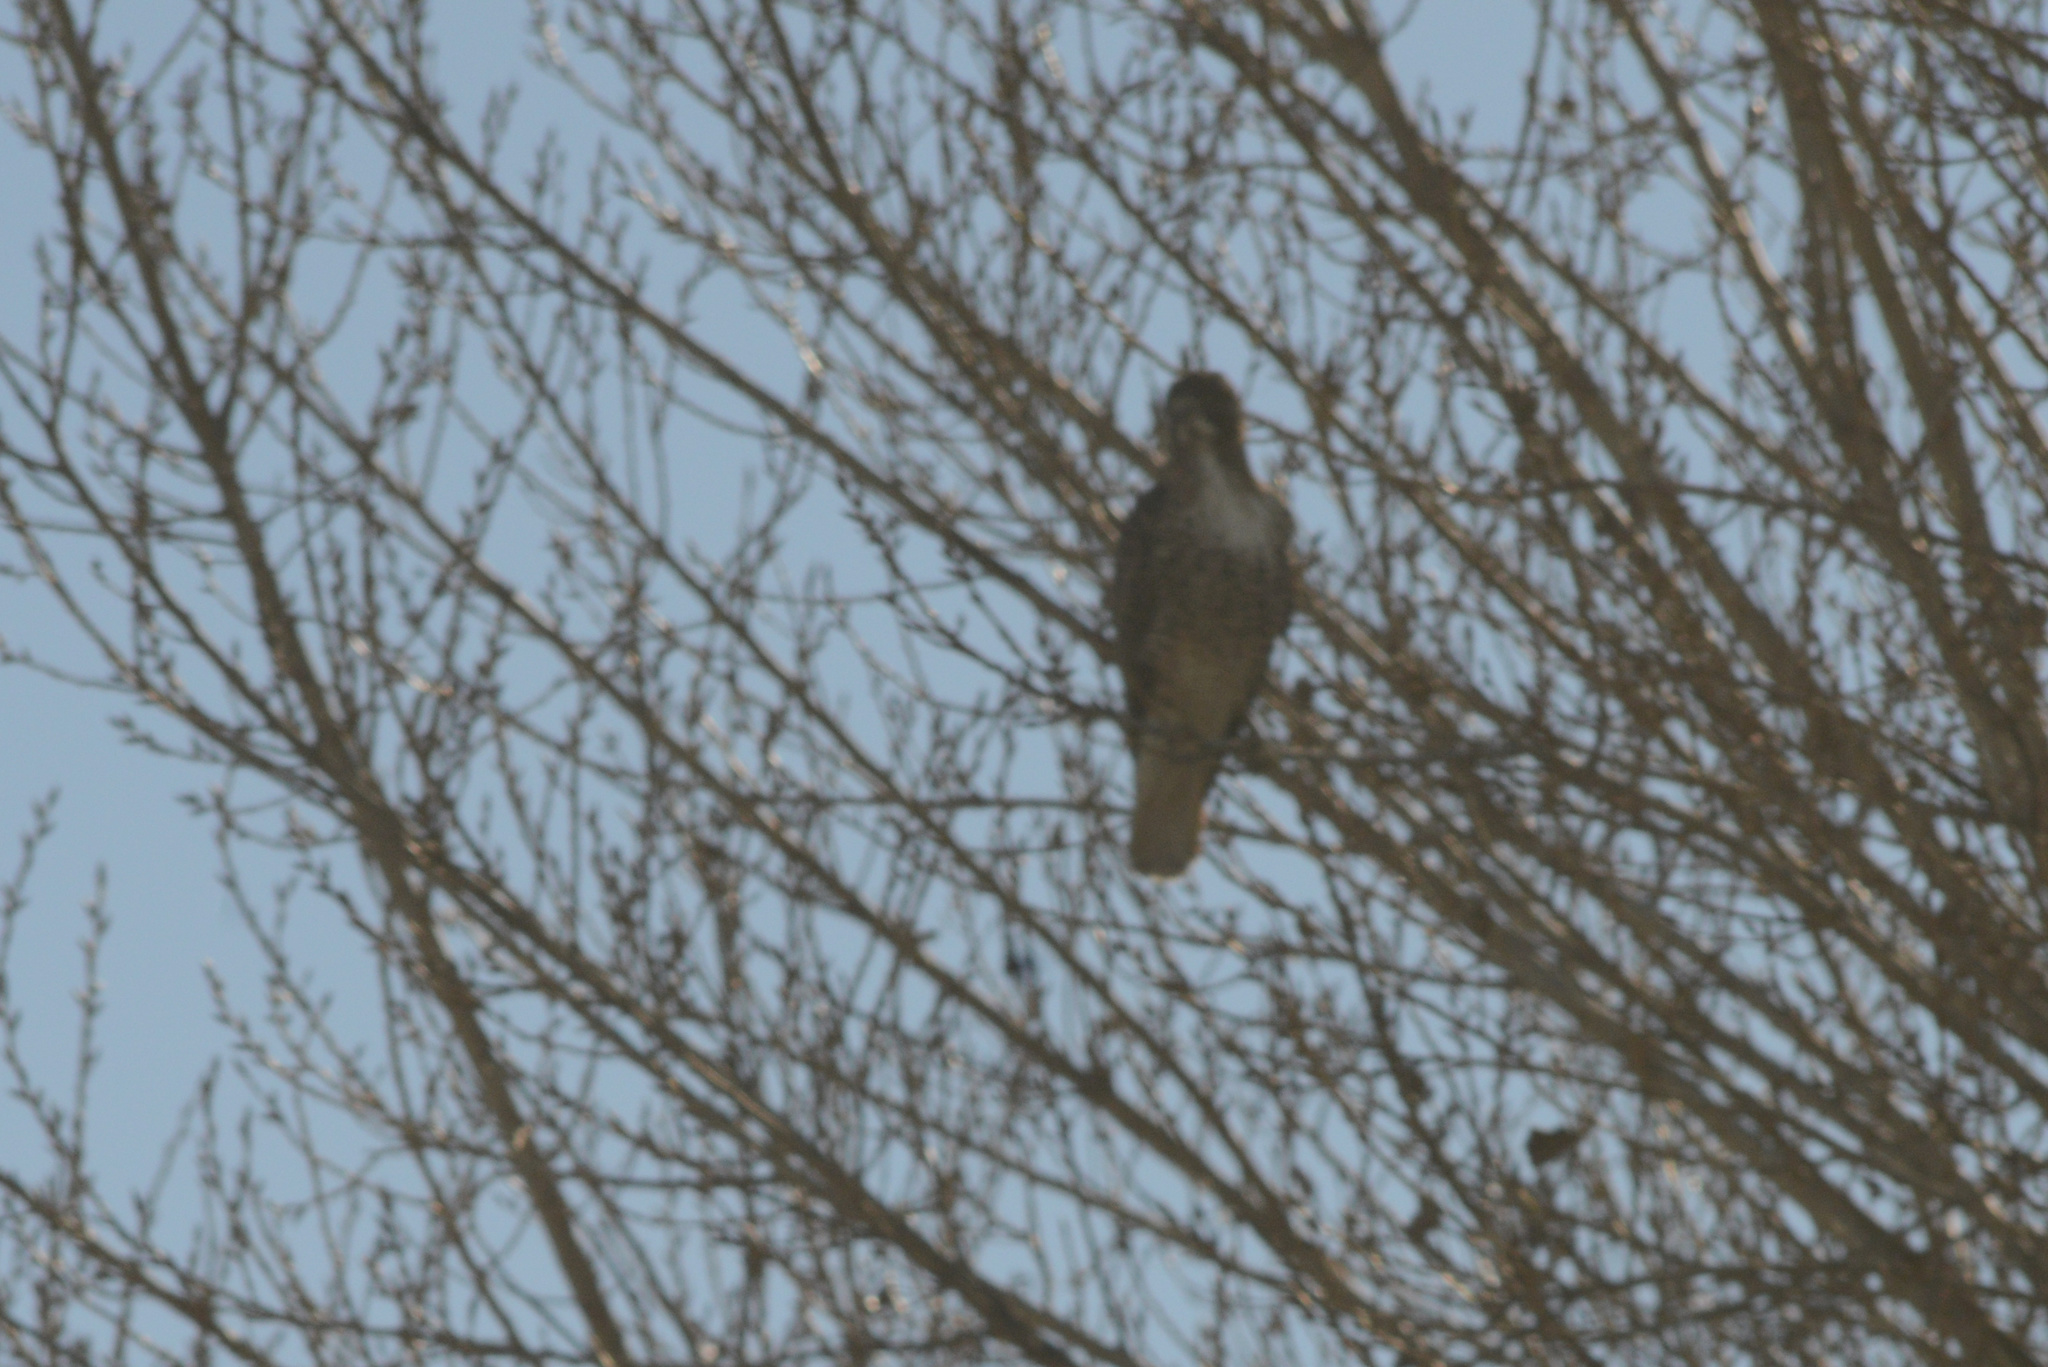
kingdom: Animalia
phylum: Chordata
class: Aves
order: Accipitriformes
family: Accipitridae
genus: Buteo
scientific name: Buteo jamaicensis
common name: Red-tailed hawk
